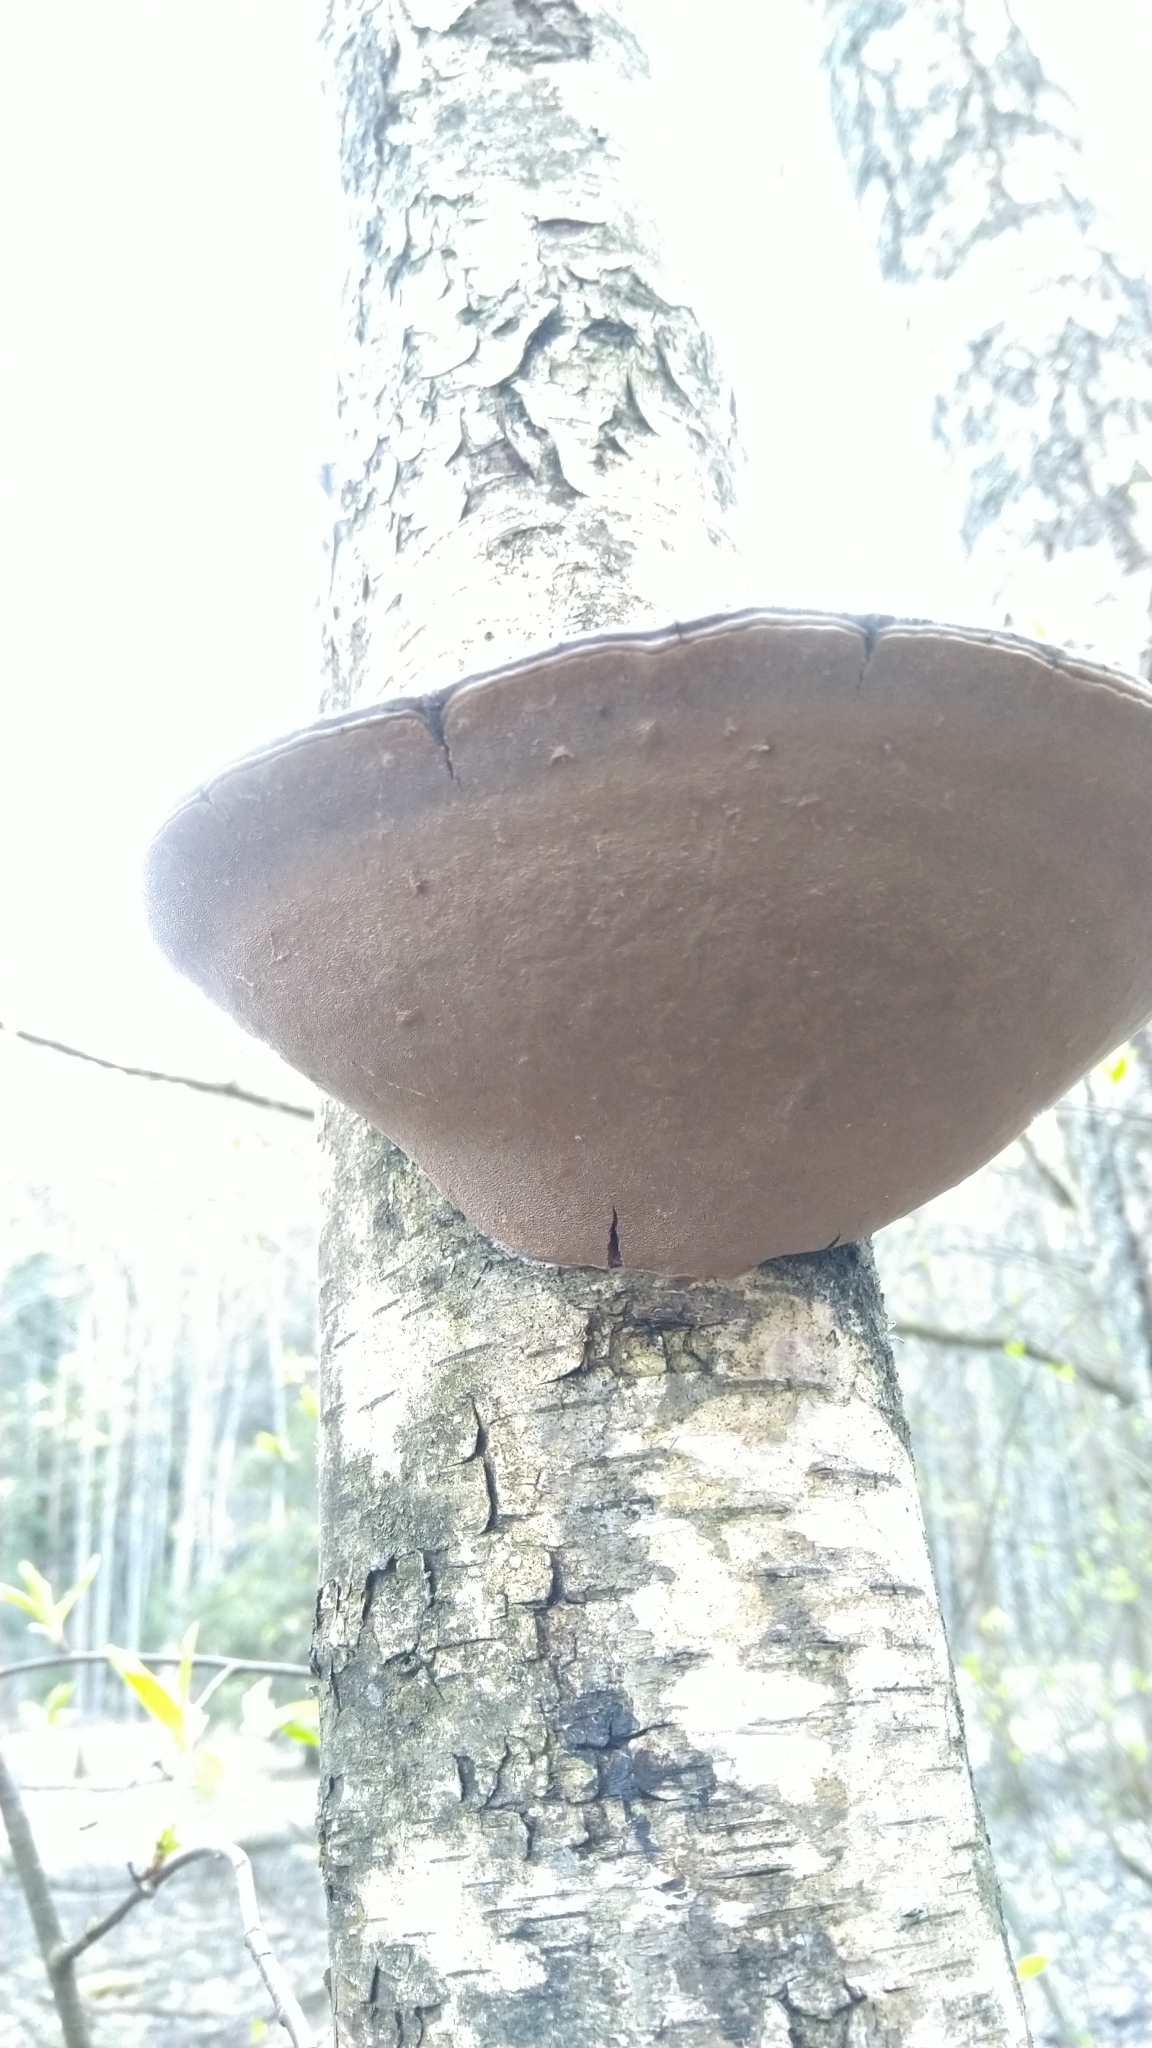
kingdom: Fungi
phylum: Basidiomycota
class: Agaricomycetes
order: Hymenochaetales
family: Hymenochaetaceae
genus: Phellinus
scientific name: Phellinus igniarius
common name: Willow bracket
